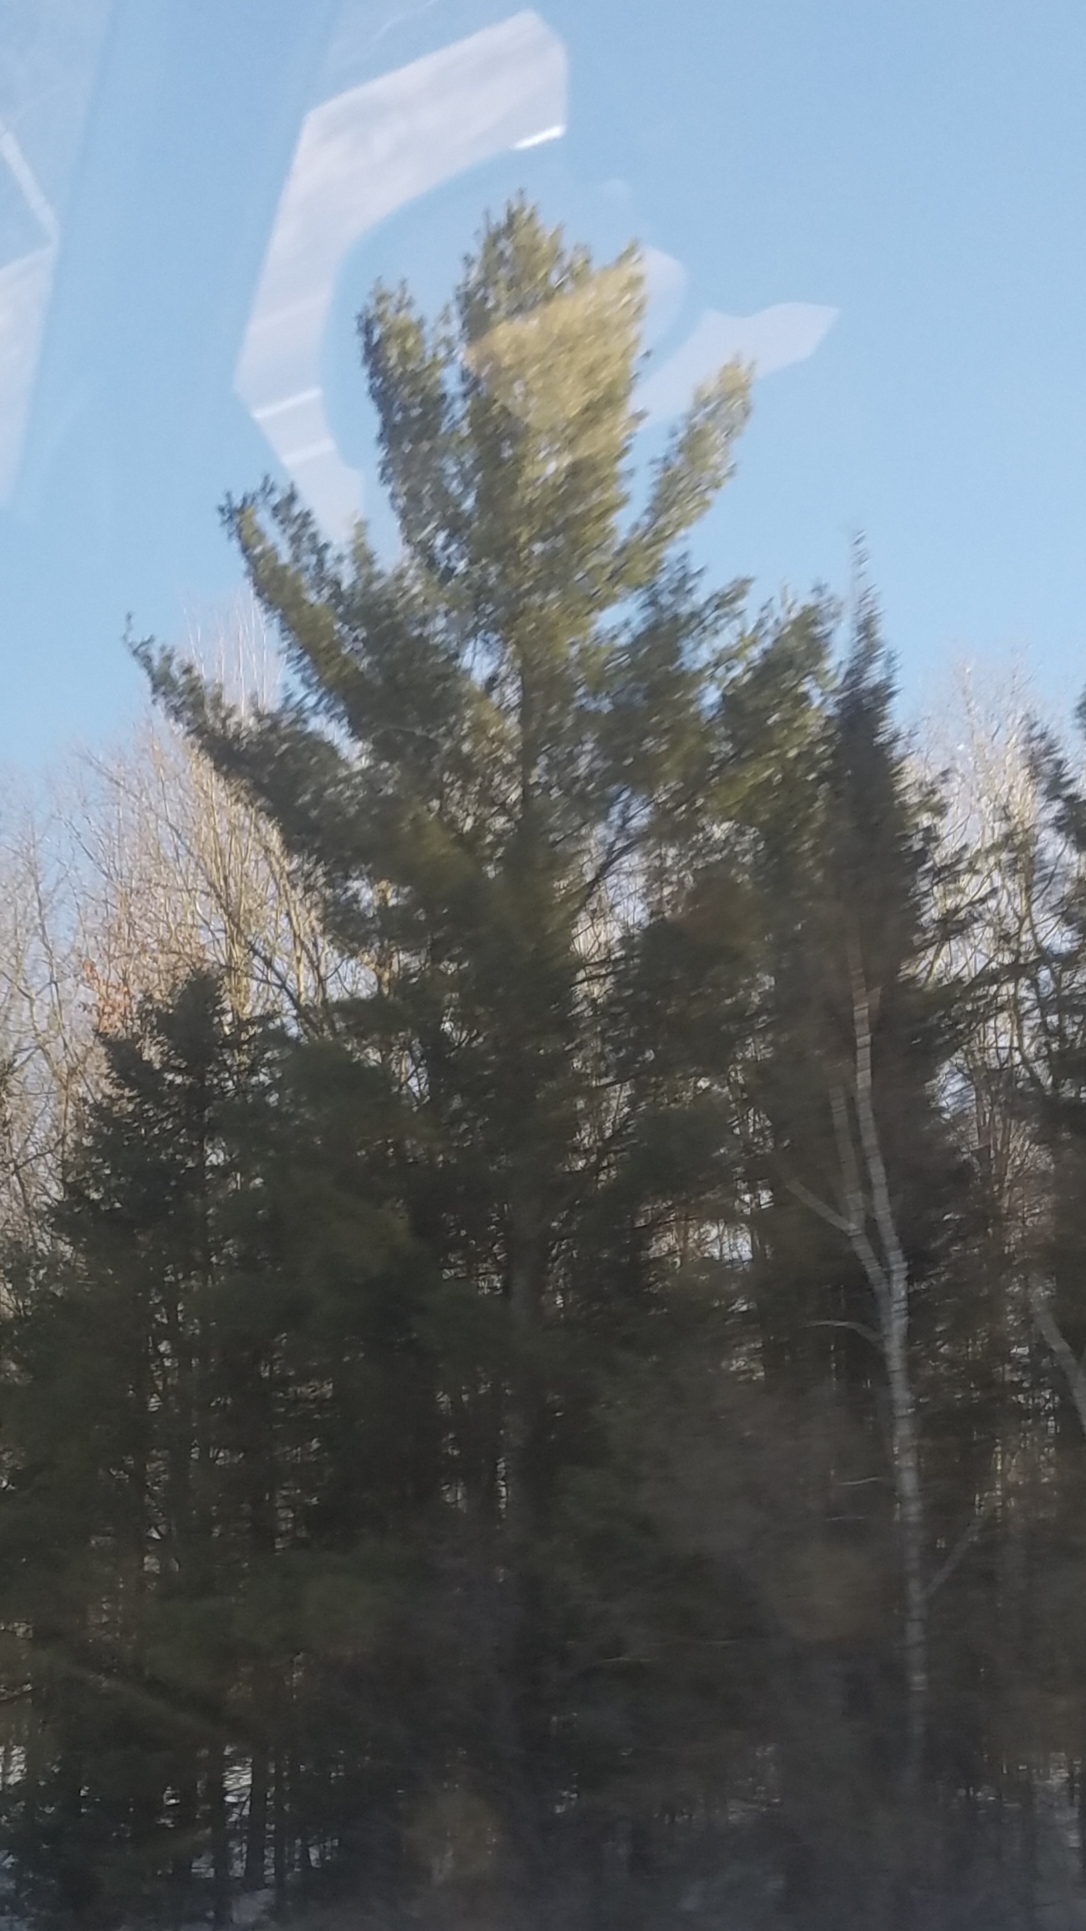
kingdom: Plantae
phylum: Tracheophyta
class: Pinopsida
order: Pinales
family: Pinaceae
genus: Pinus
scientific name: Pinus strobus
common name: Weymouth pine
